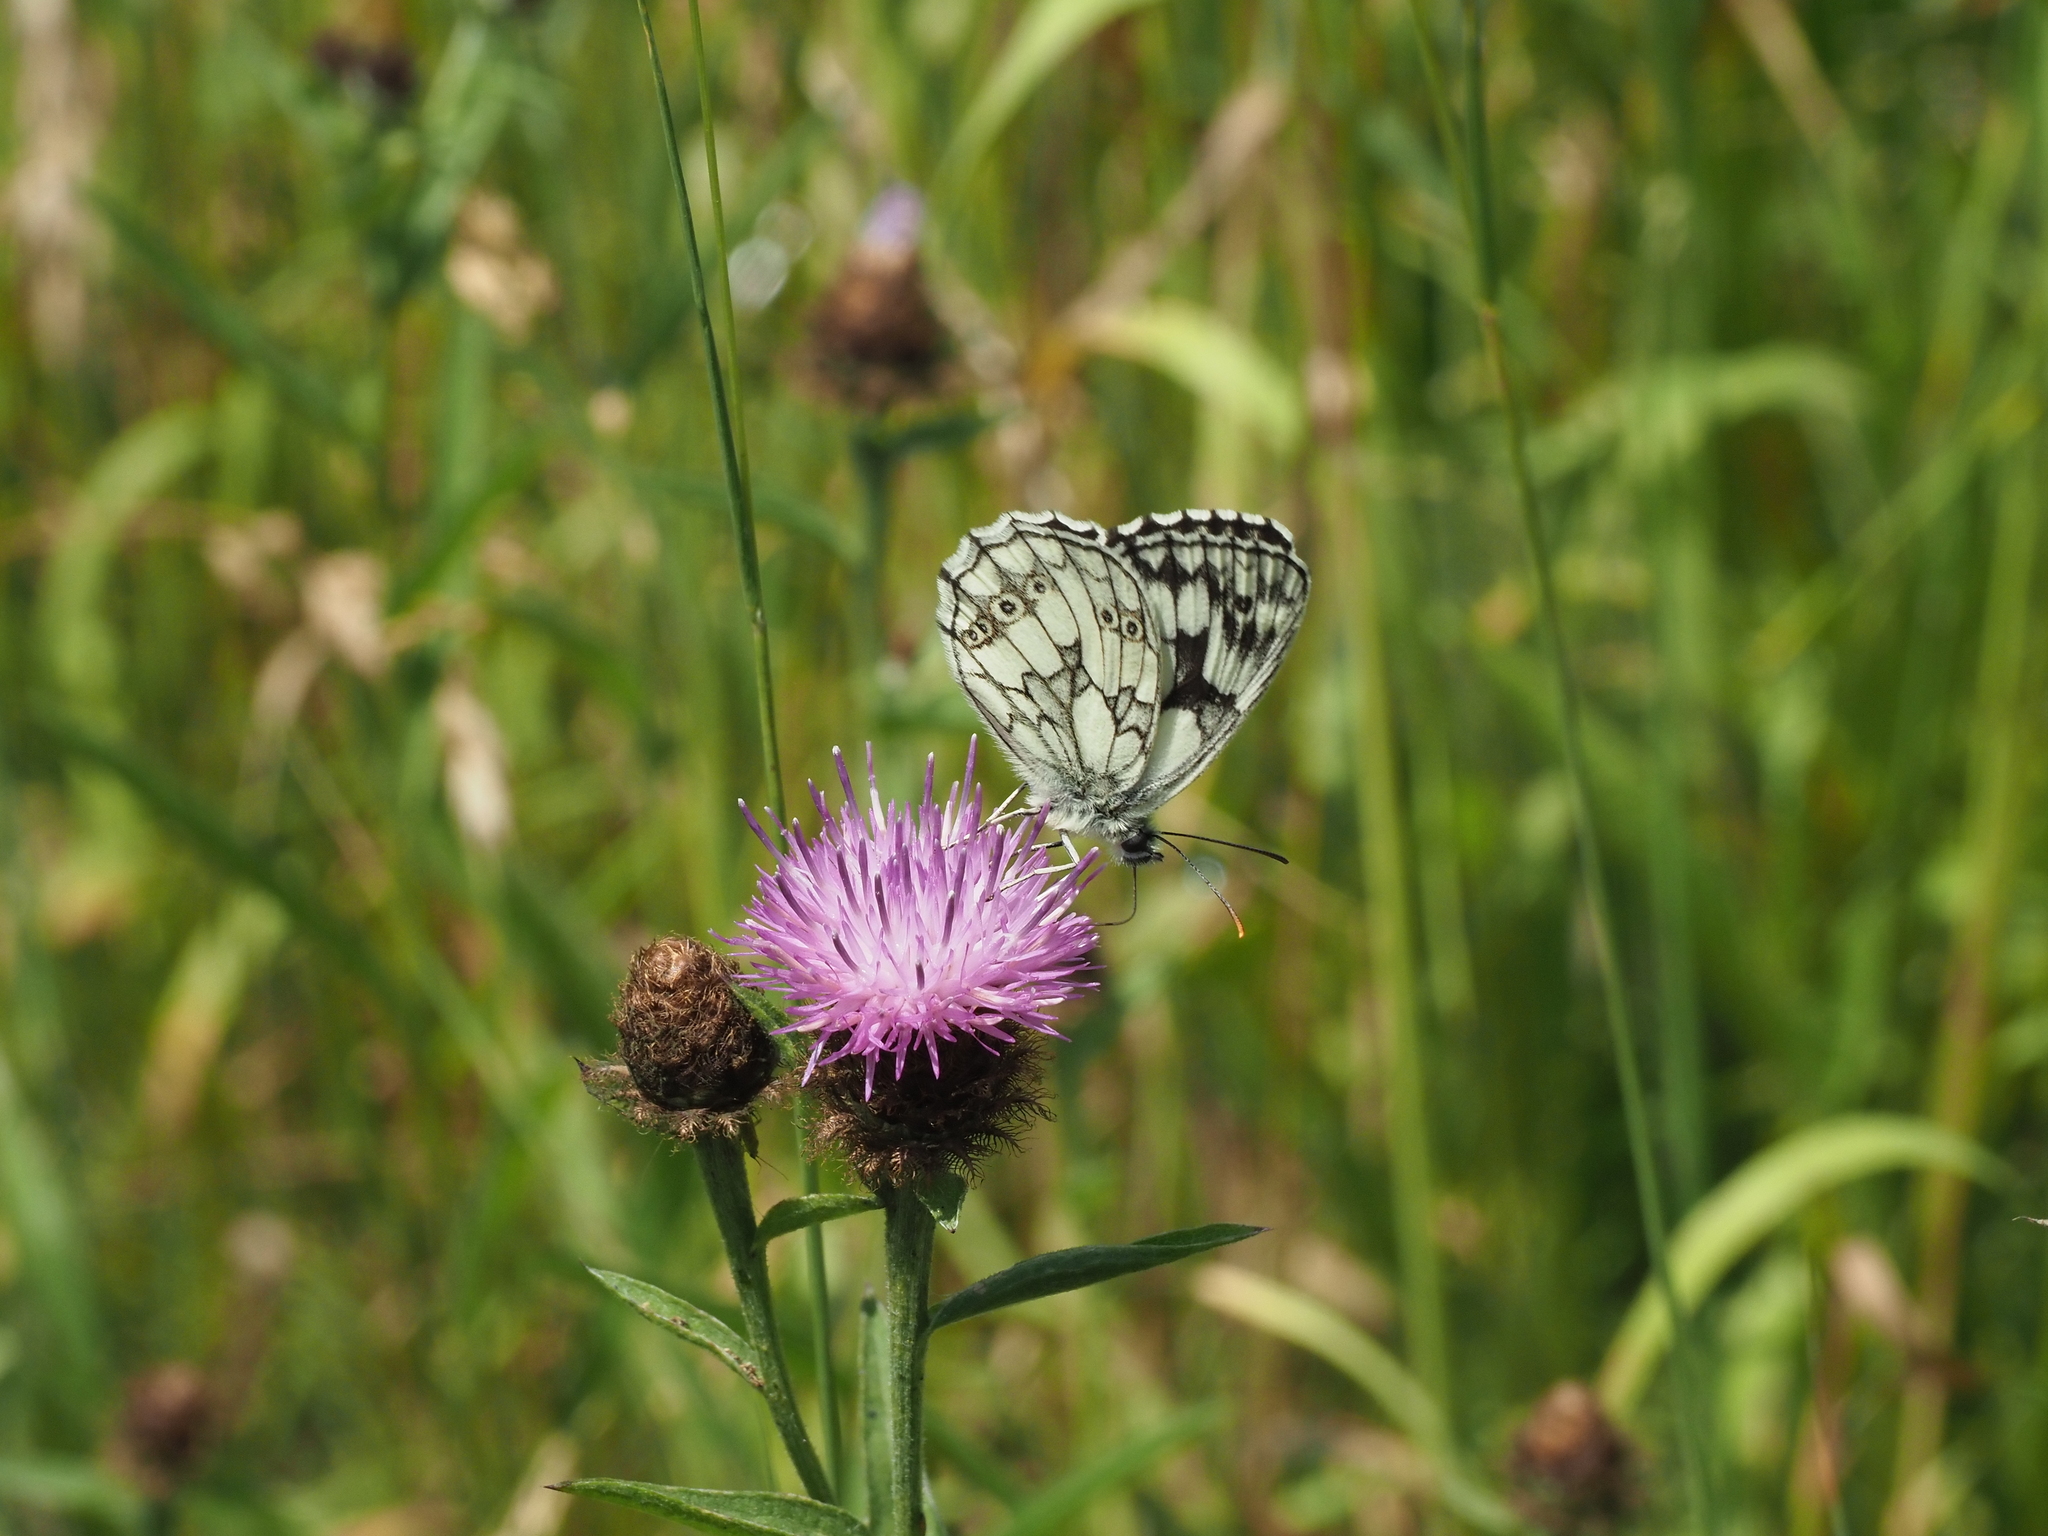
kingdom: Animalia
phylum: Arthropoda
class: Insecta
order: Lepidoptera
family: Nymphalidae
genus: Melanargia
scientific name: Melanargia galathea
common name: Marbled white
